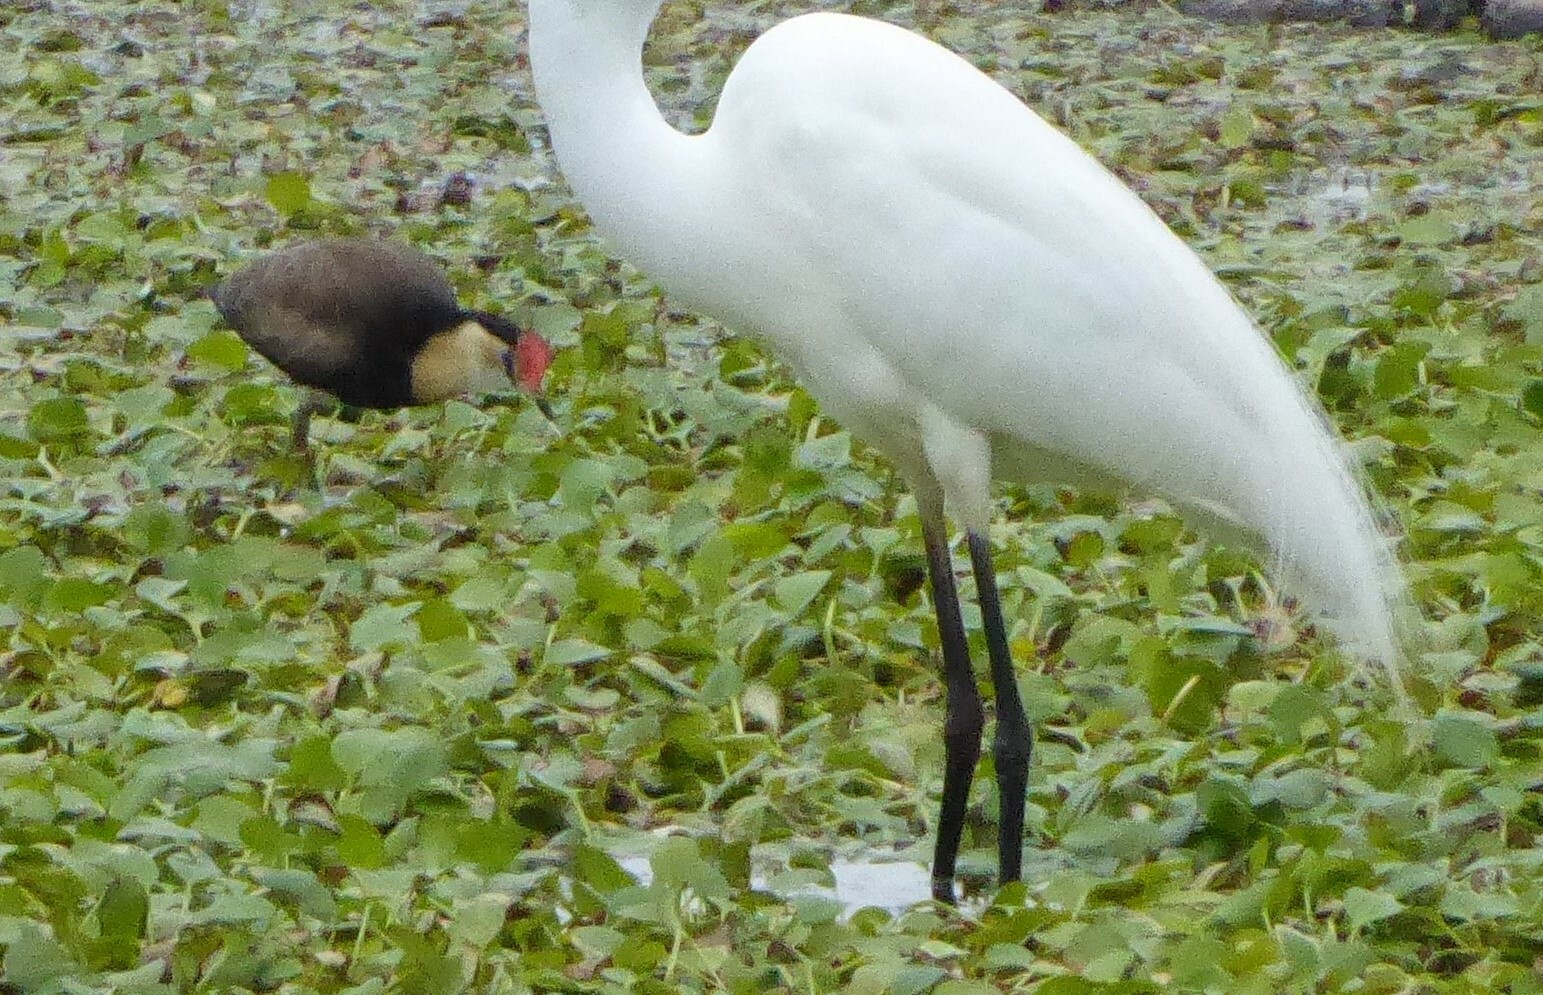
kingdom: Animalia
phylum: Chordata
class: Aves
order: Charadriiformes
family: Jacanidae
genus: Irediparra
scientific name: Irediparra gallinacea
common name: Comb-crested jacana
